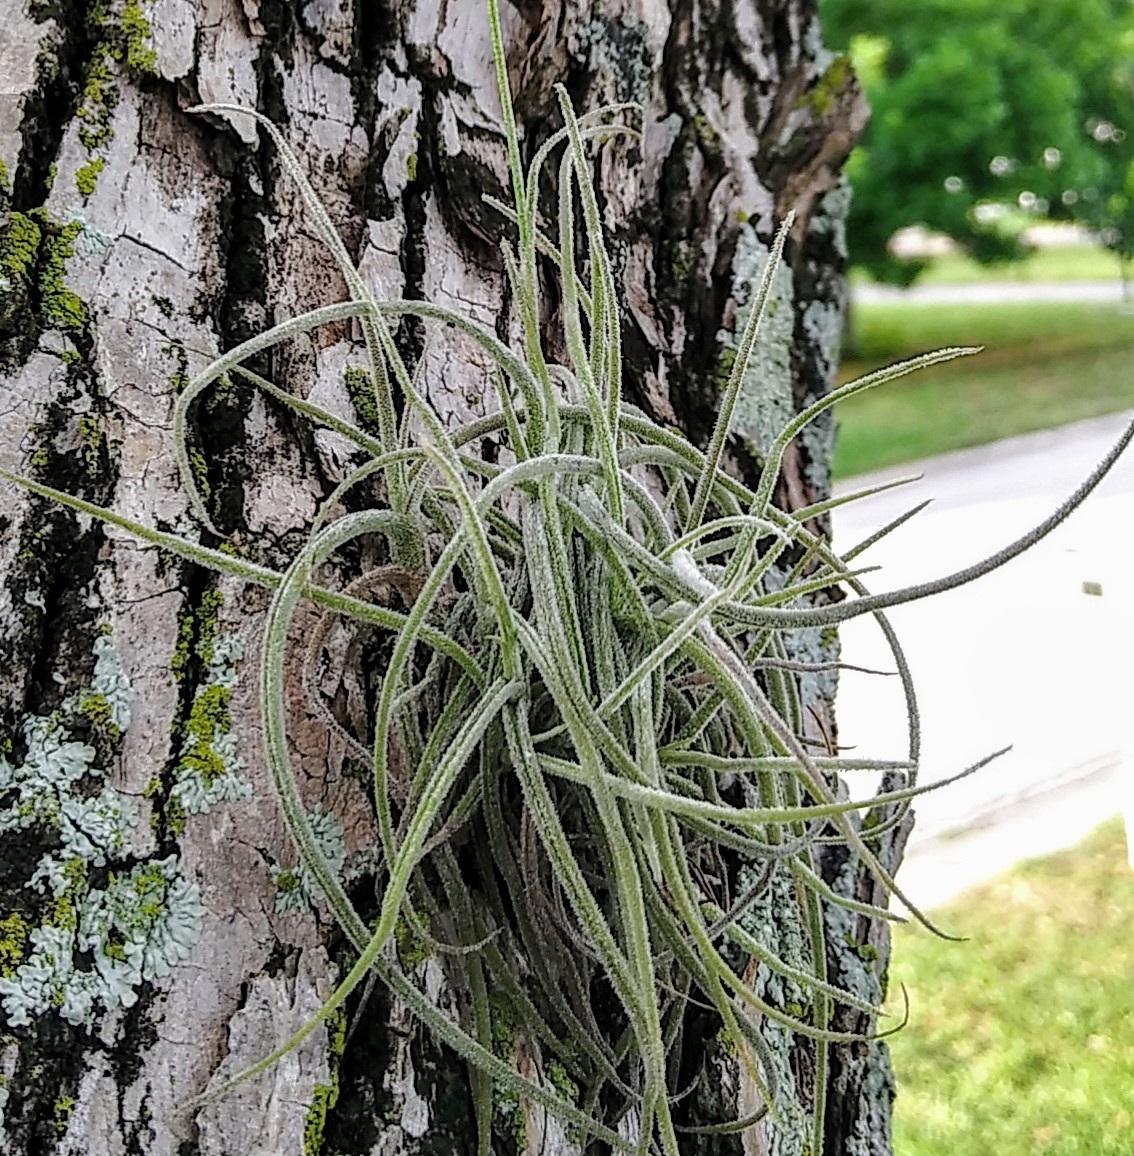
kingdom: Plantae
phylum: Tracheophyta
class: Liliopsida
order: Poales
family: Bromeliaceae
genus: Tillandsia
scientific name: Tillandsia recurvata
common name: Small ballmoss
